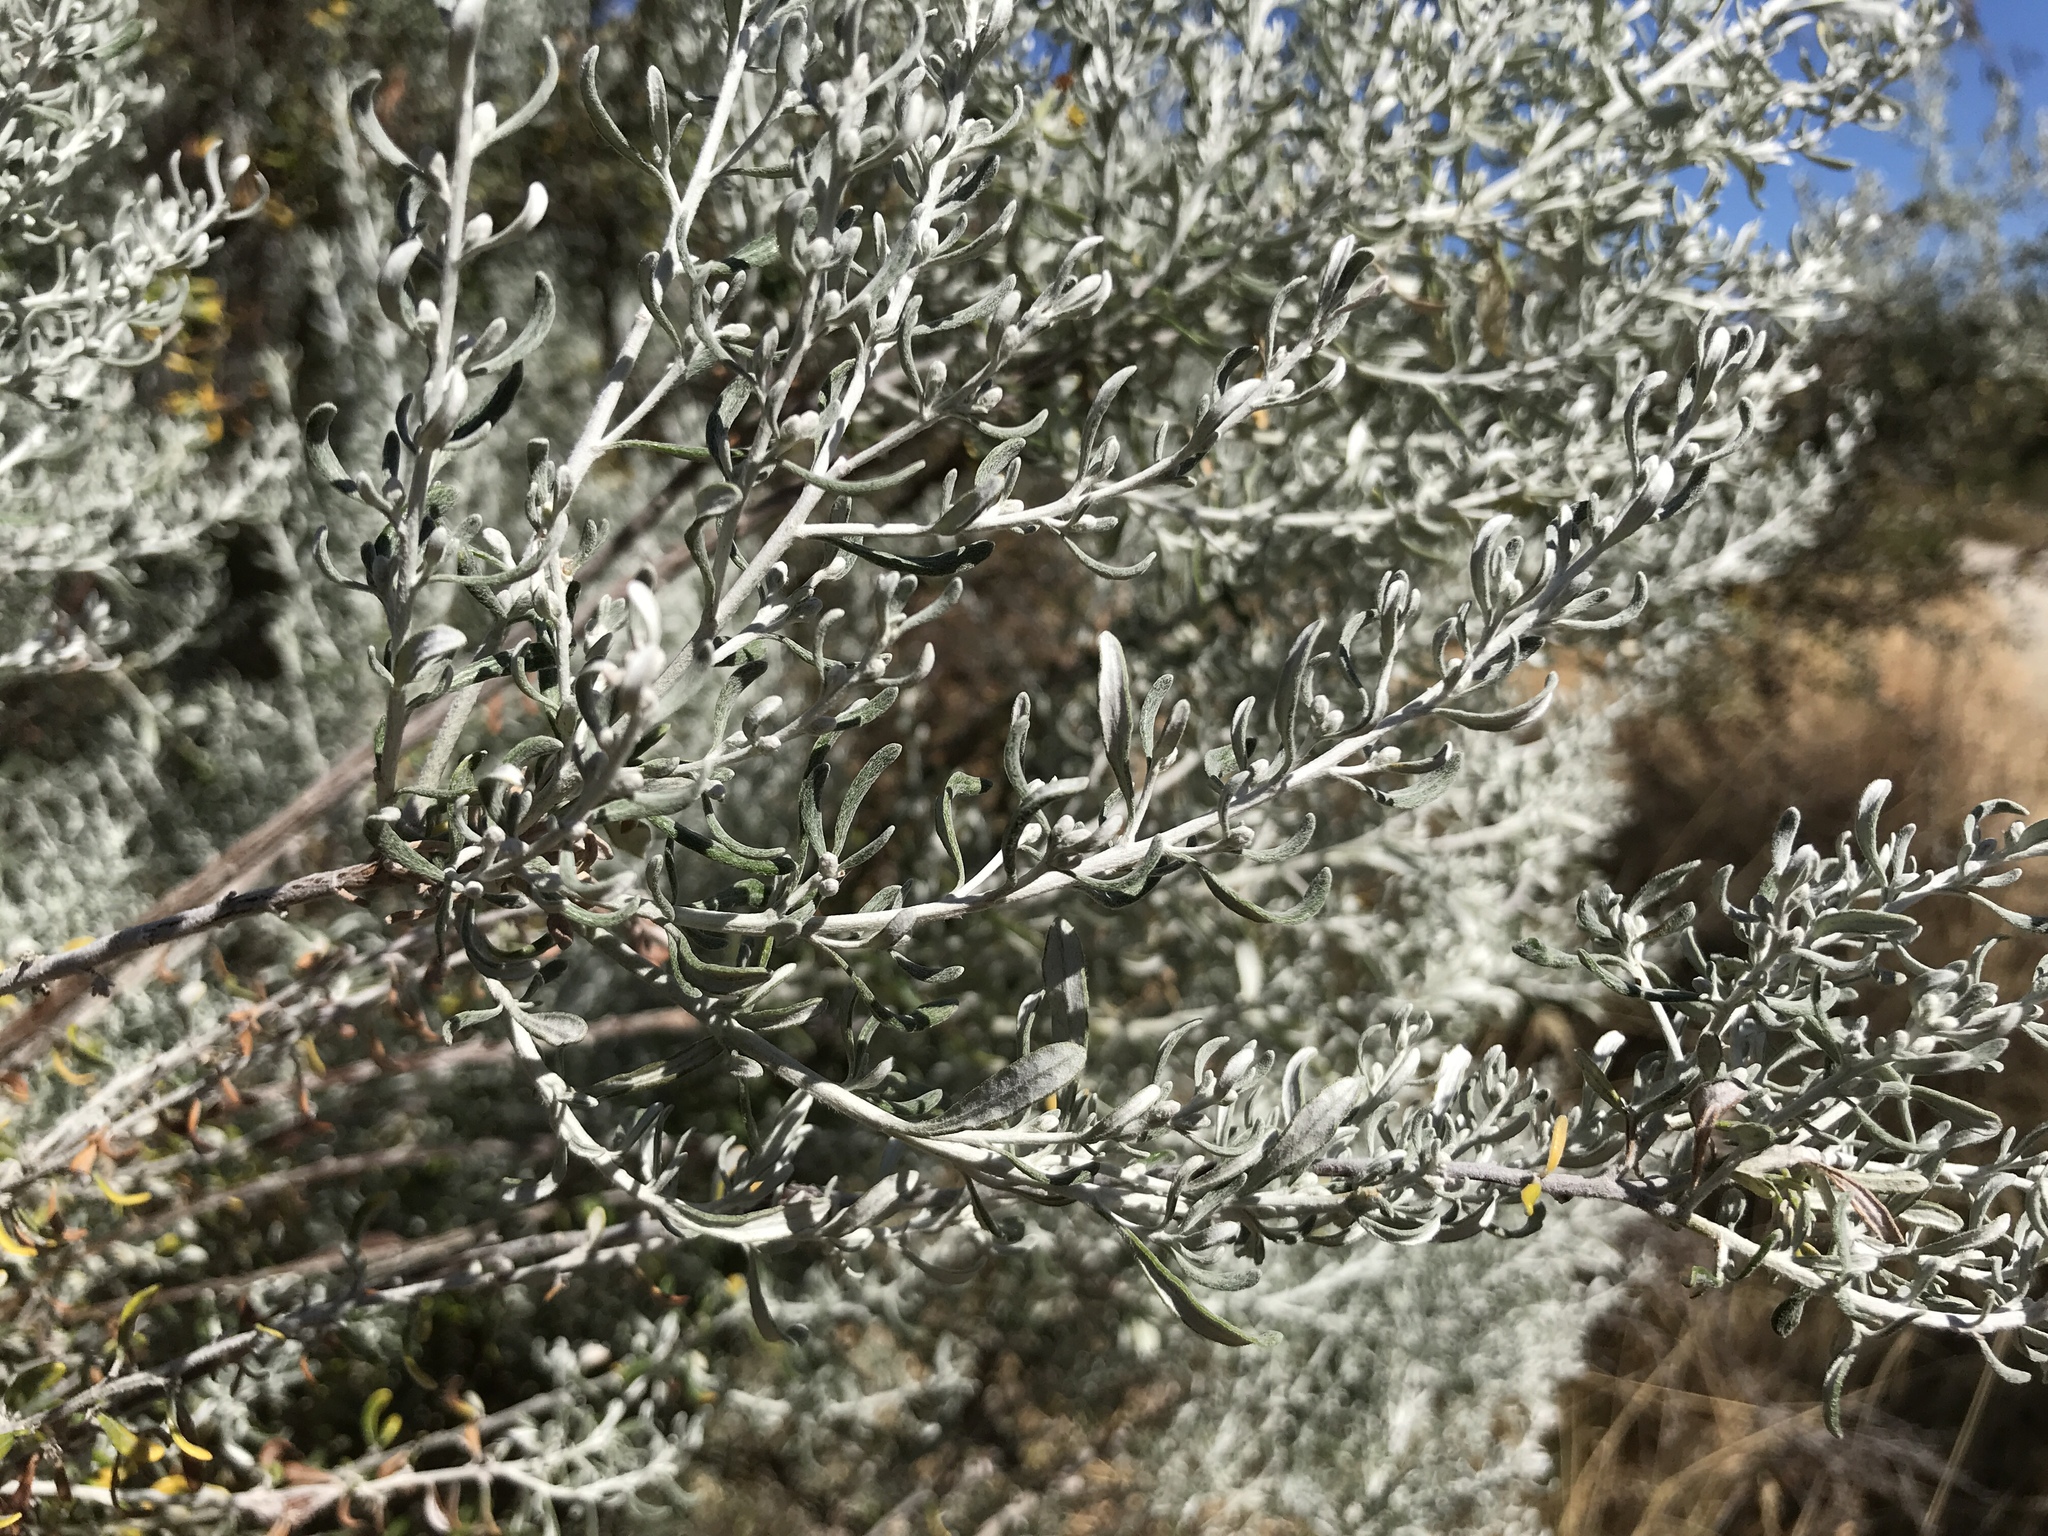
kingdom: Plantae
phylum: Tracheophyta
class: Magnoliopsida
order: Asterales
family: Asteraceae
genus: Olearia
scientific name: Olearia axillaris
